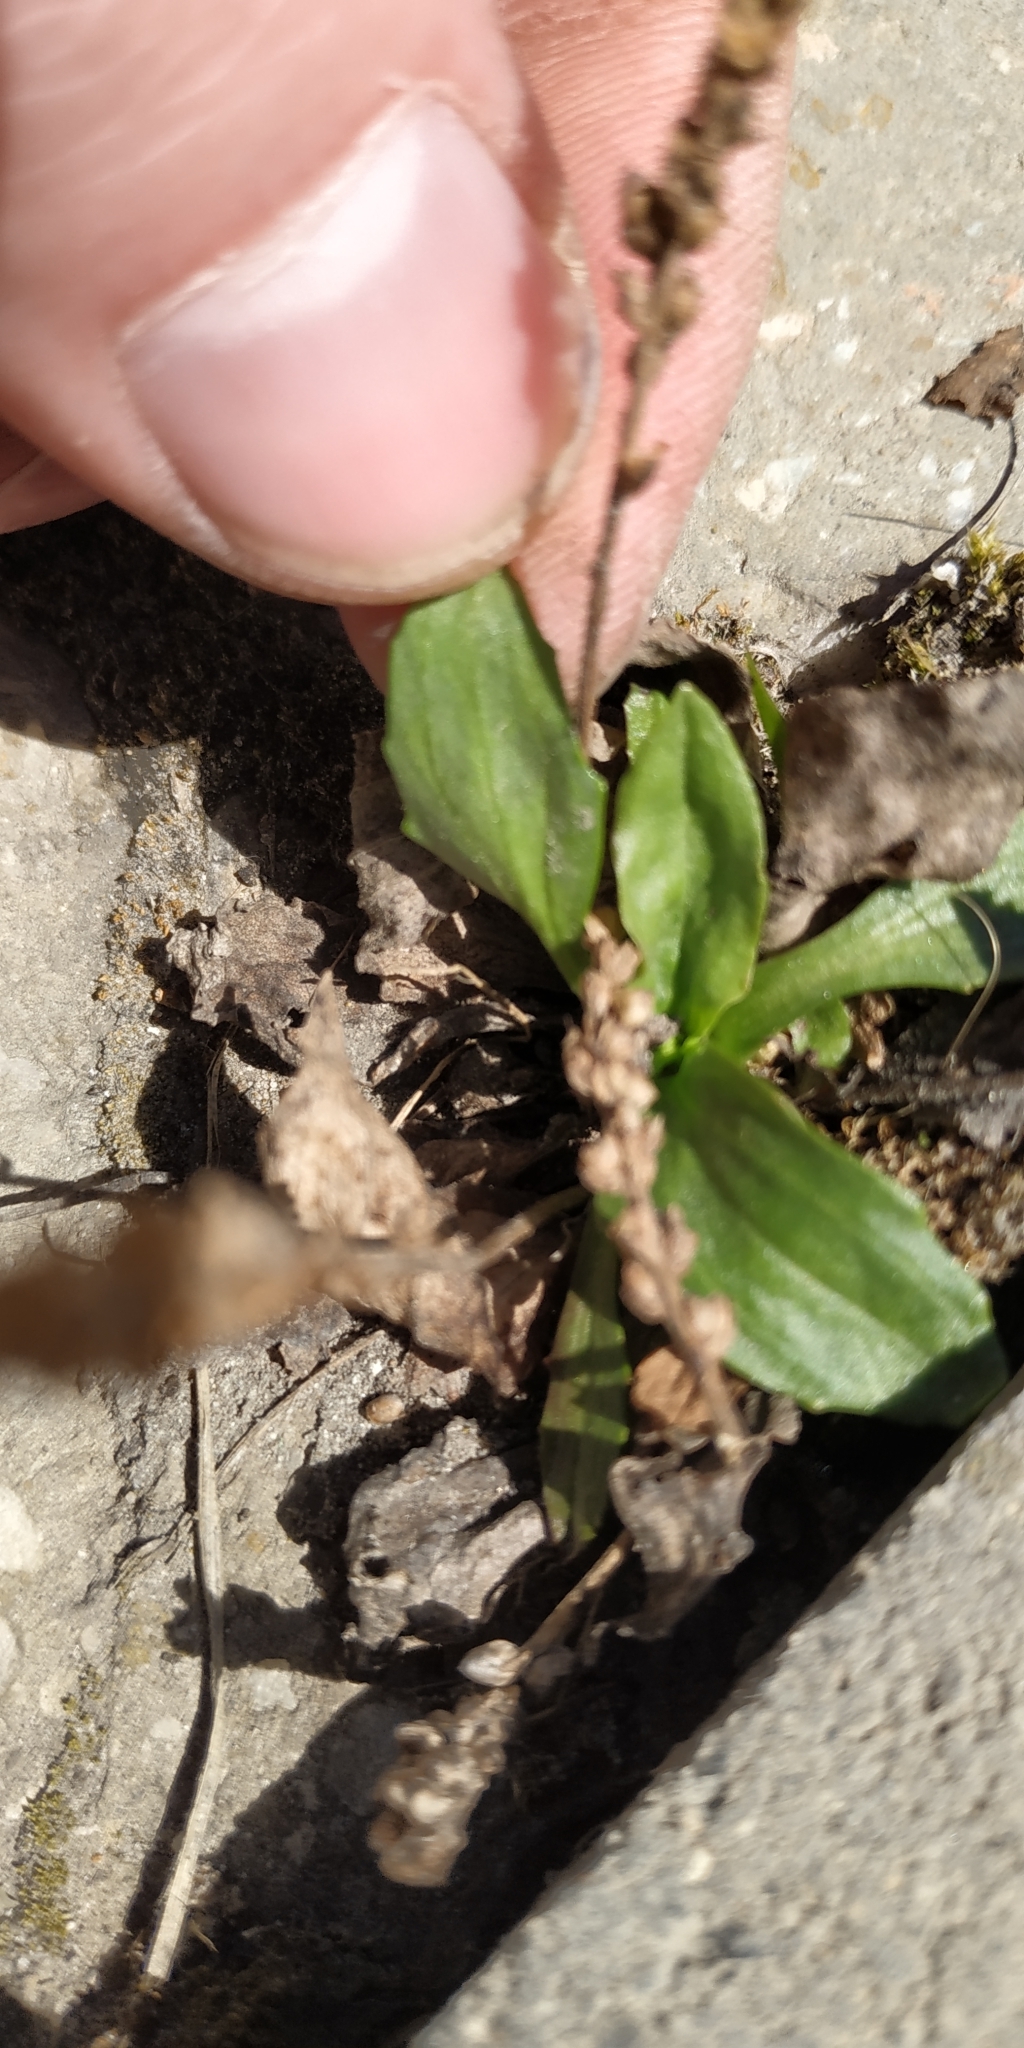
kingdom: Plantae
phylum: Tracheophyta
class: Magnoliopsida
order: Lamiales
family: Plantaginaceae
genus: Plantago
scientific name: Plantago depressa
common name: Depressed plantain
